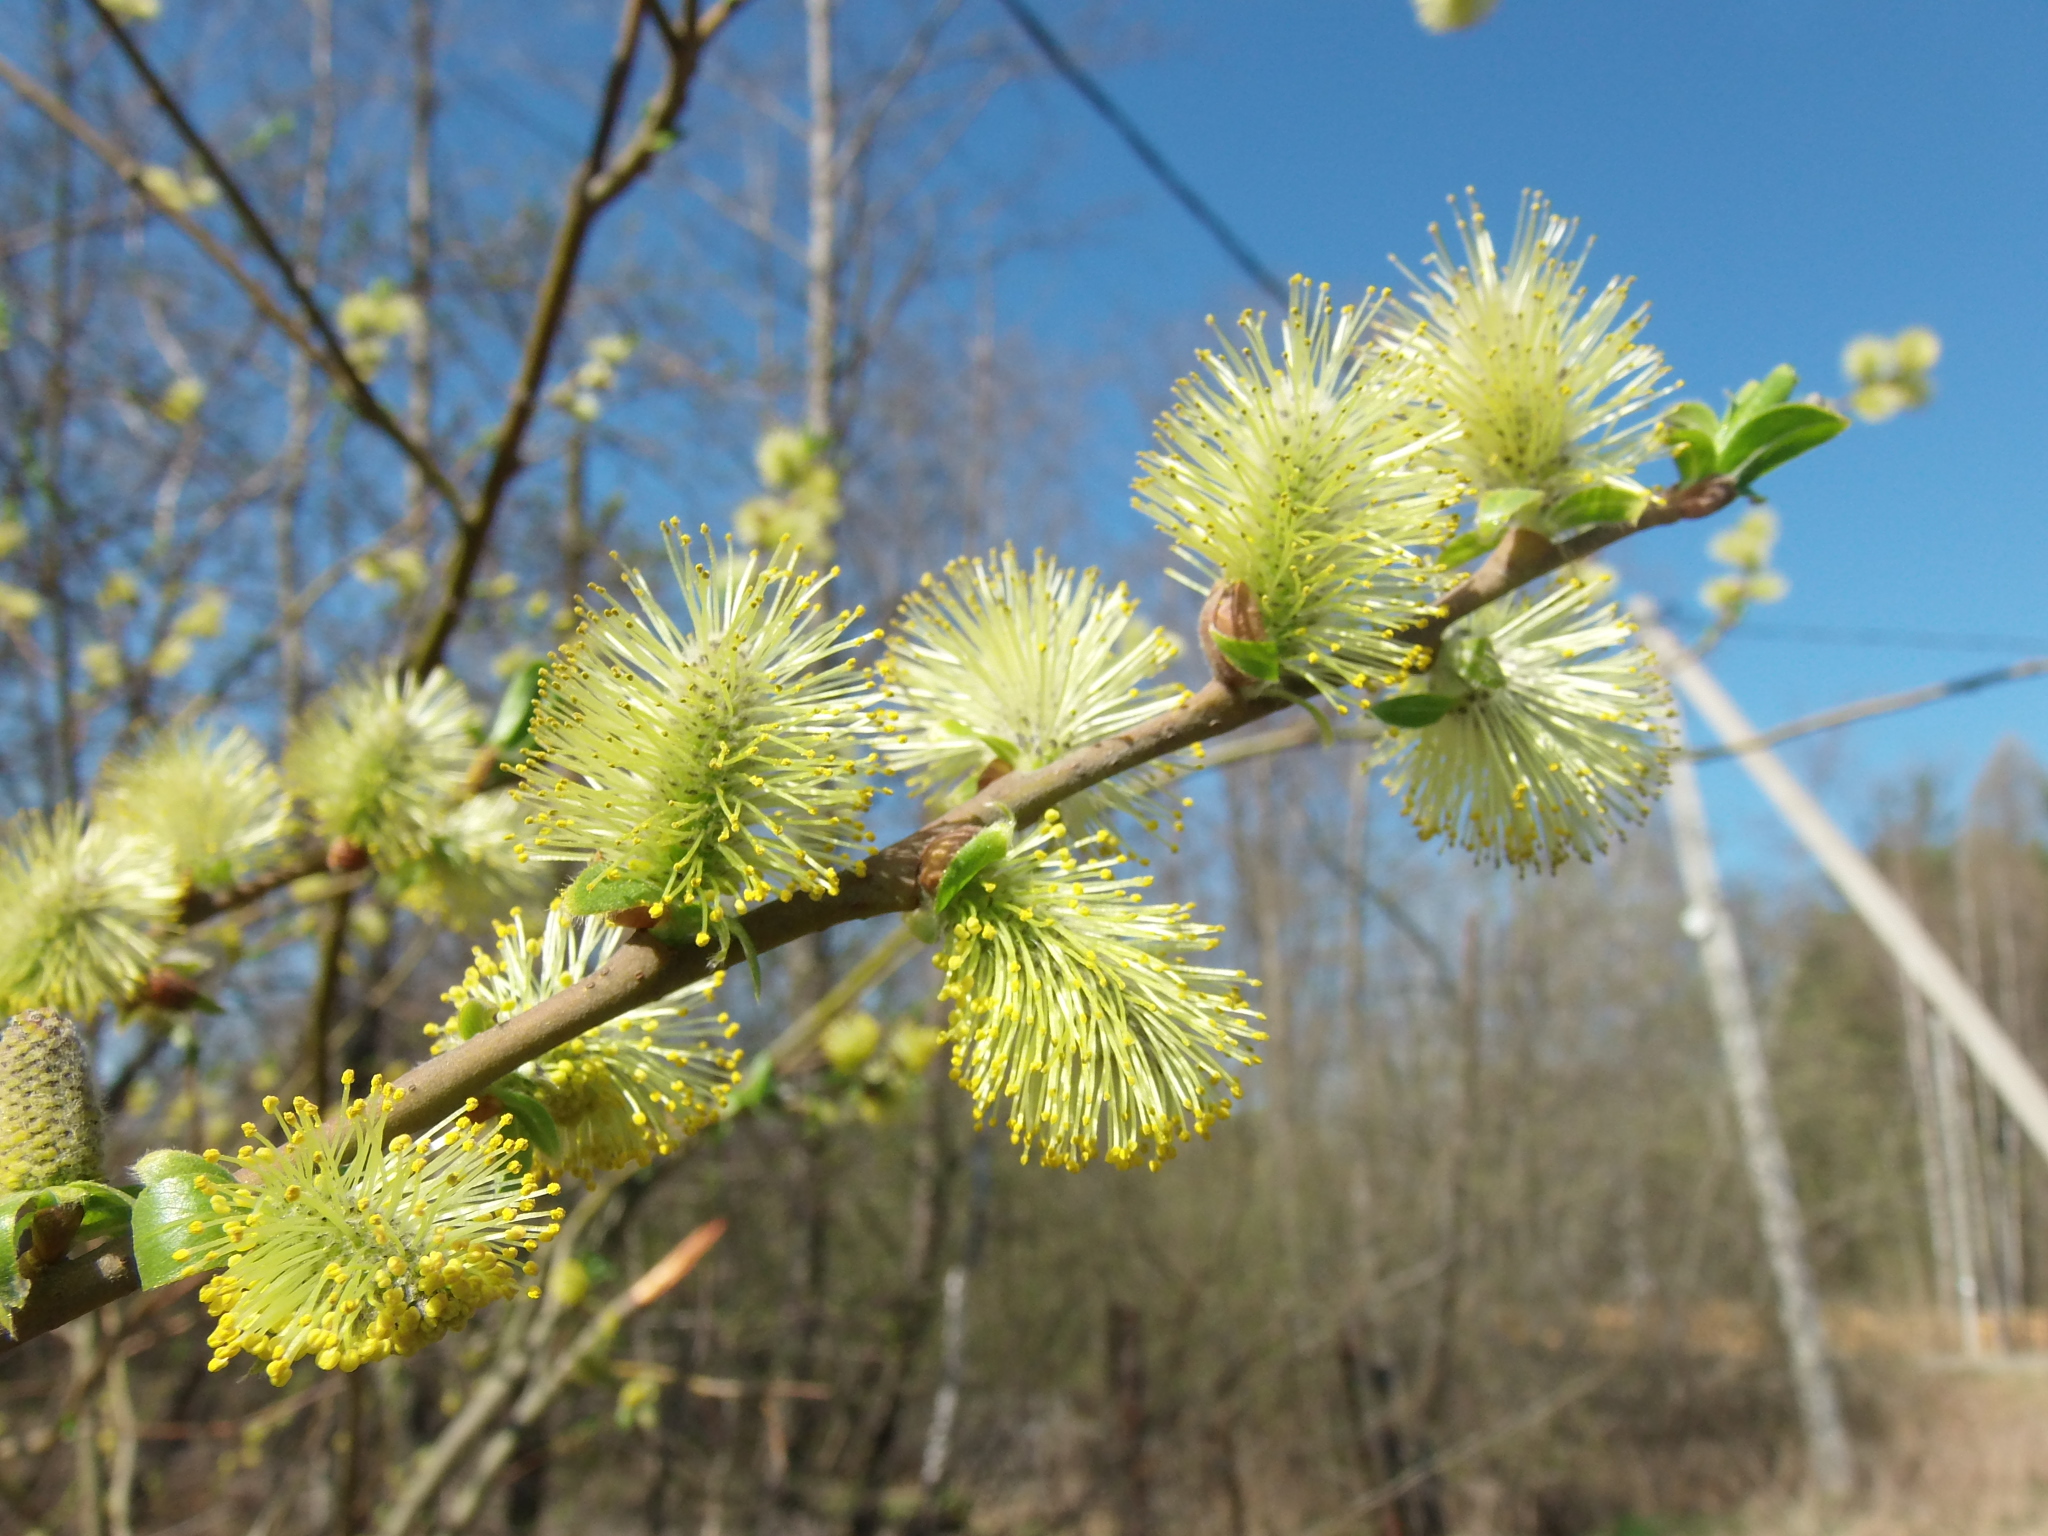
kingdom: Plantae
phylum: Tracheophyta
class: Magnoliopsida
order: Malpighiales
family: Salicaceae
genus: Salix
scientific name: Salix myrsinifolia
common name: Dark-leaved willow
